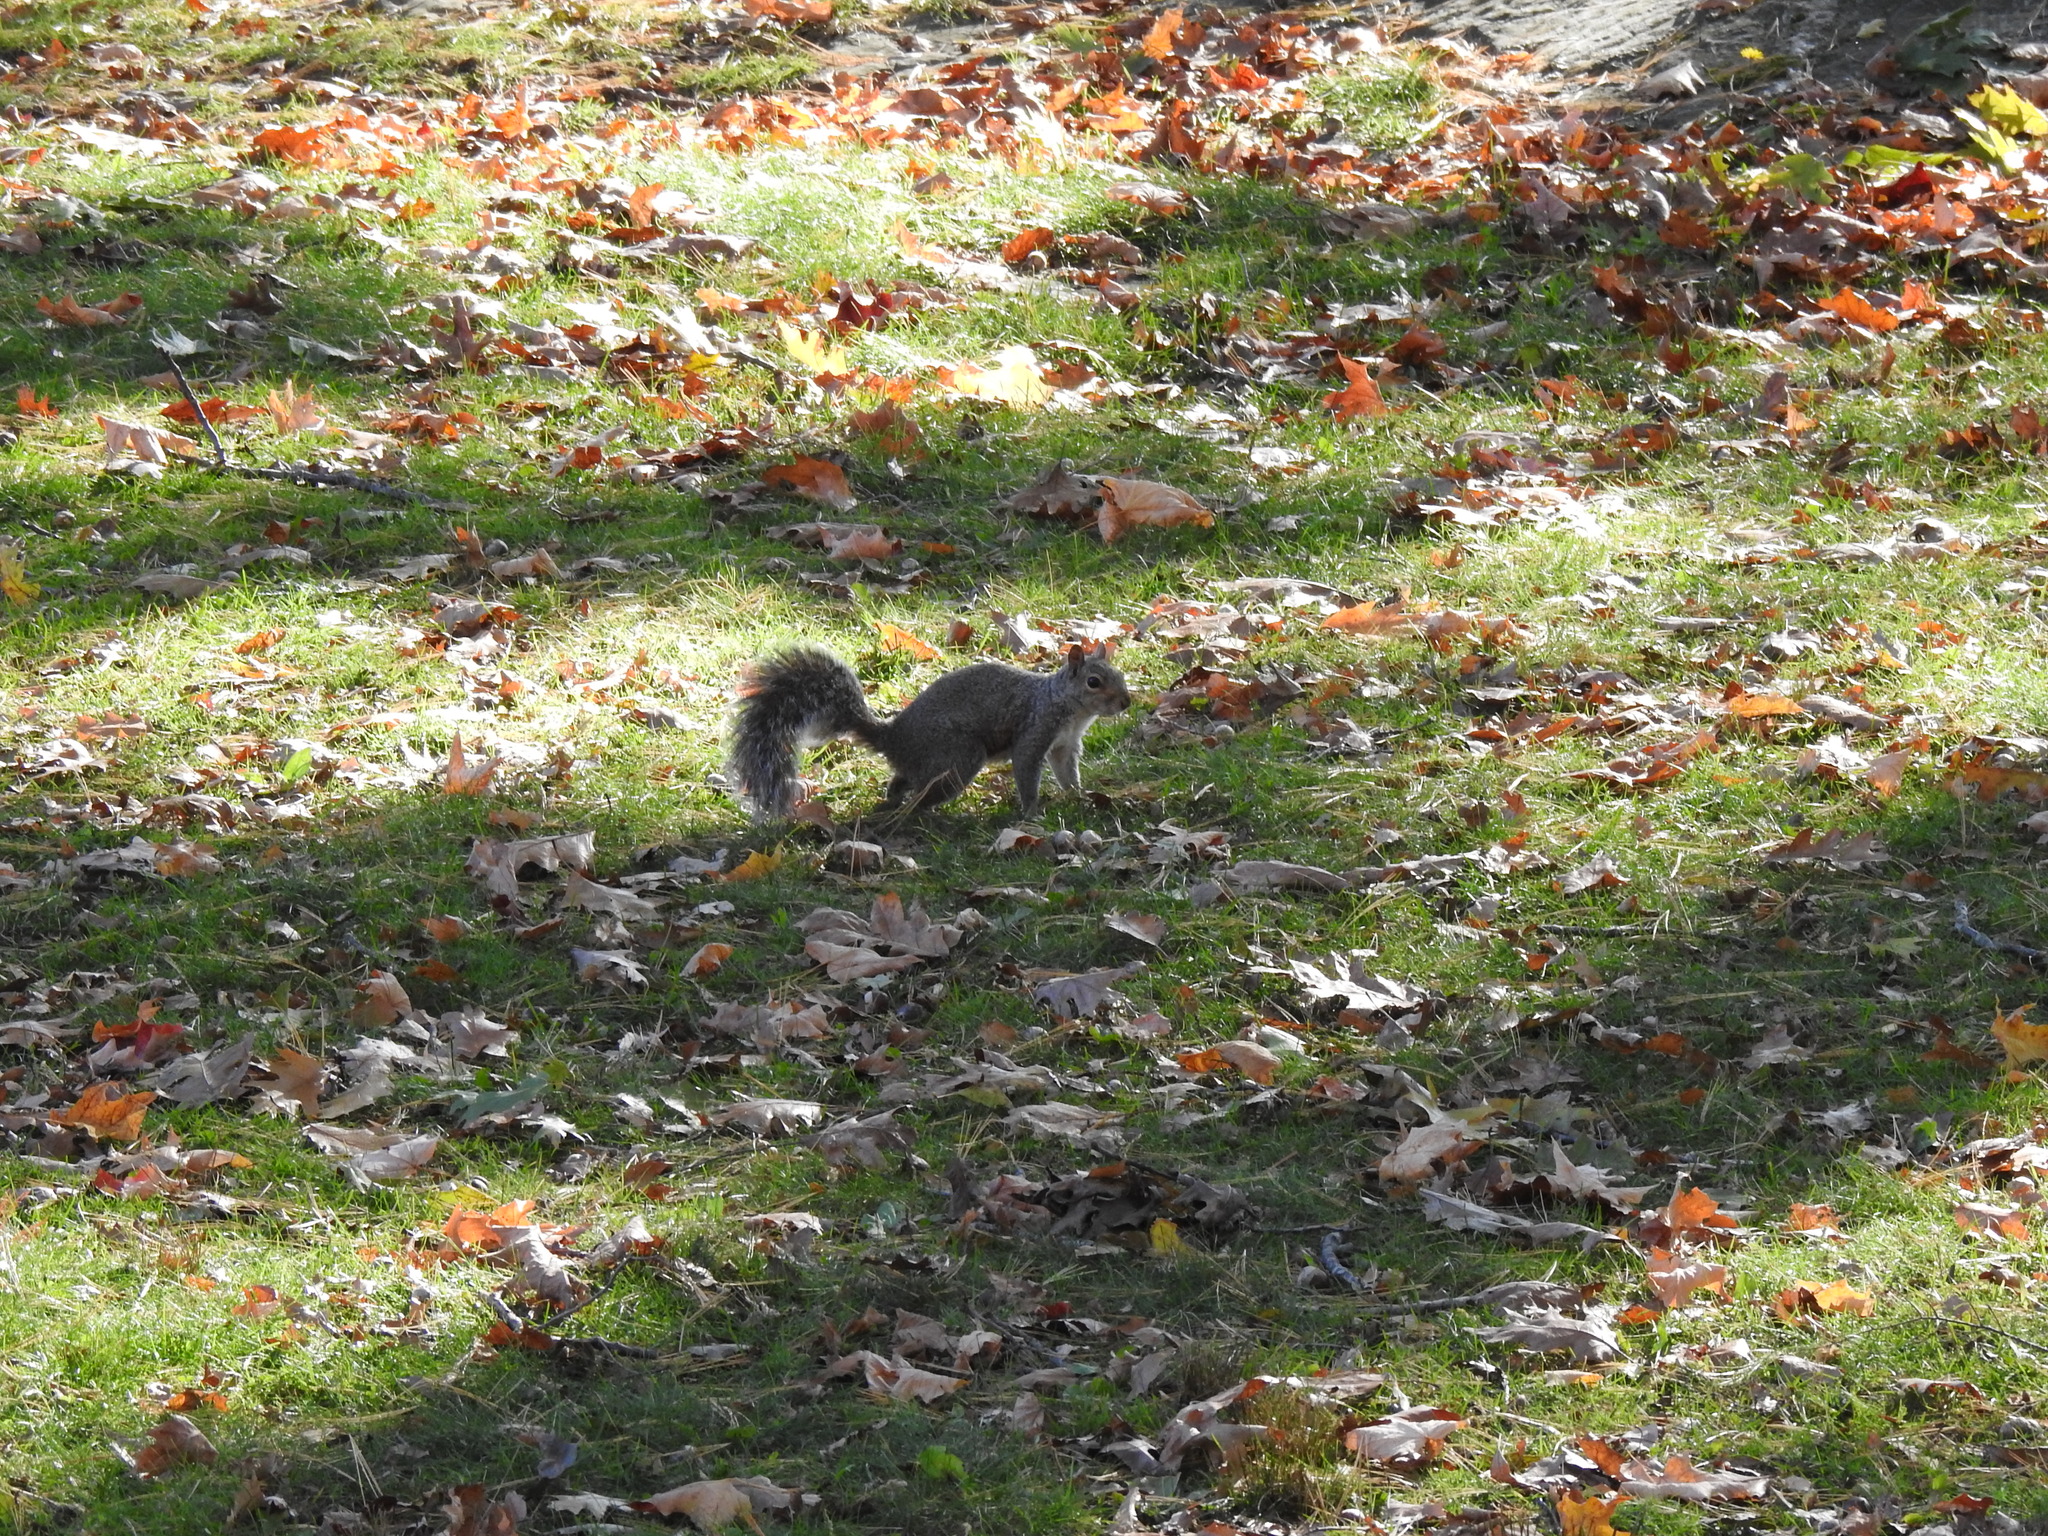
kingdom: Animalia
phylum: Chordata
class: Mammalia
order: Rodentia
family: Sciuridae
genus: Sciurus
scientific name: Sciurus carolinensis
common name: Eastern gray squirrel
